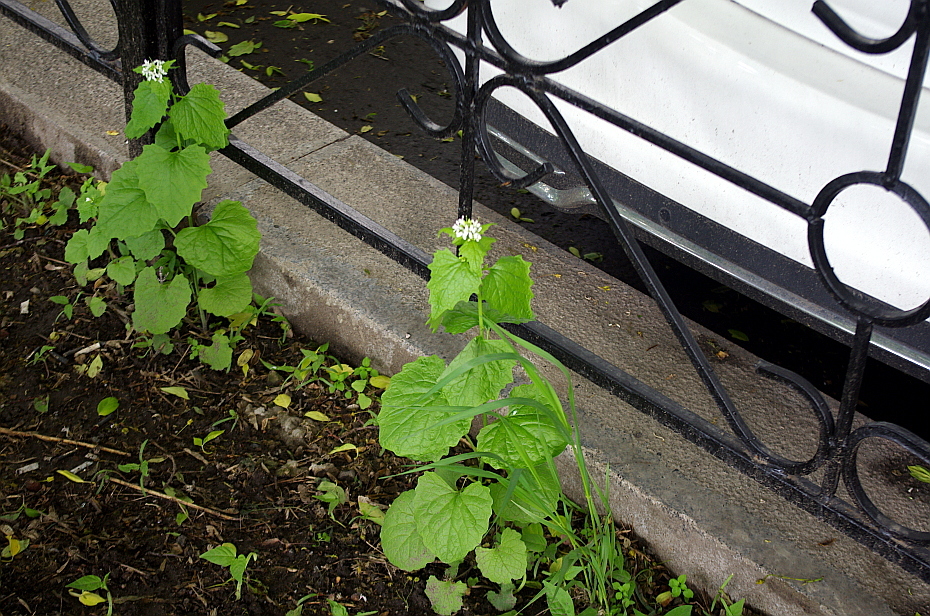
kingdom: Plantae
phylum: Tracheophyta
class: Magnoliopsida
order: Brassicales
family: Brassicaceae
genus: Alliaria
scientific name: Alliaria petiolata
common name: Garlic mustard
